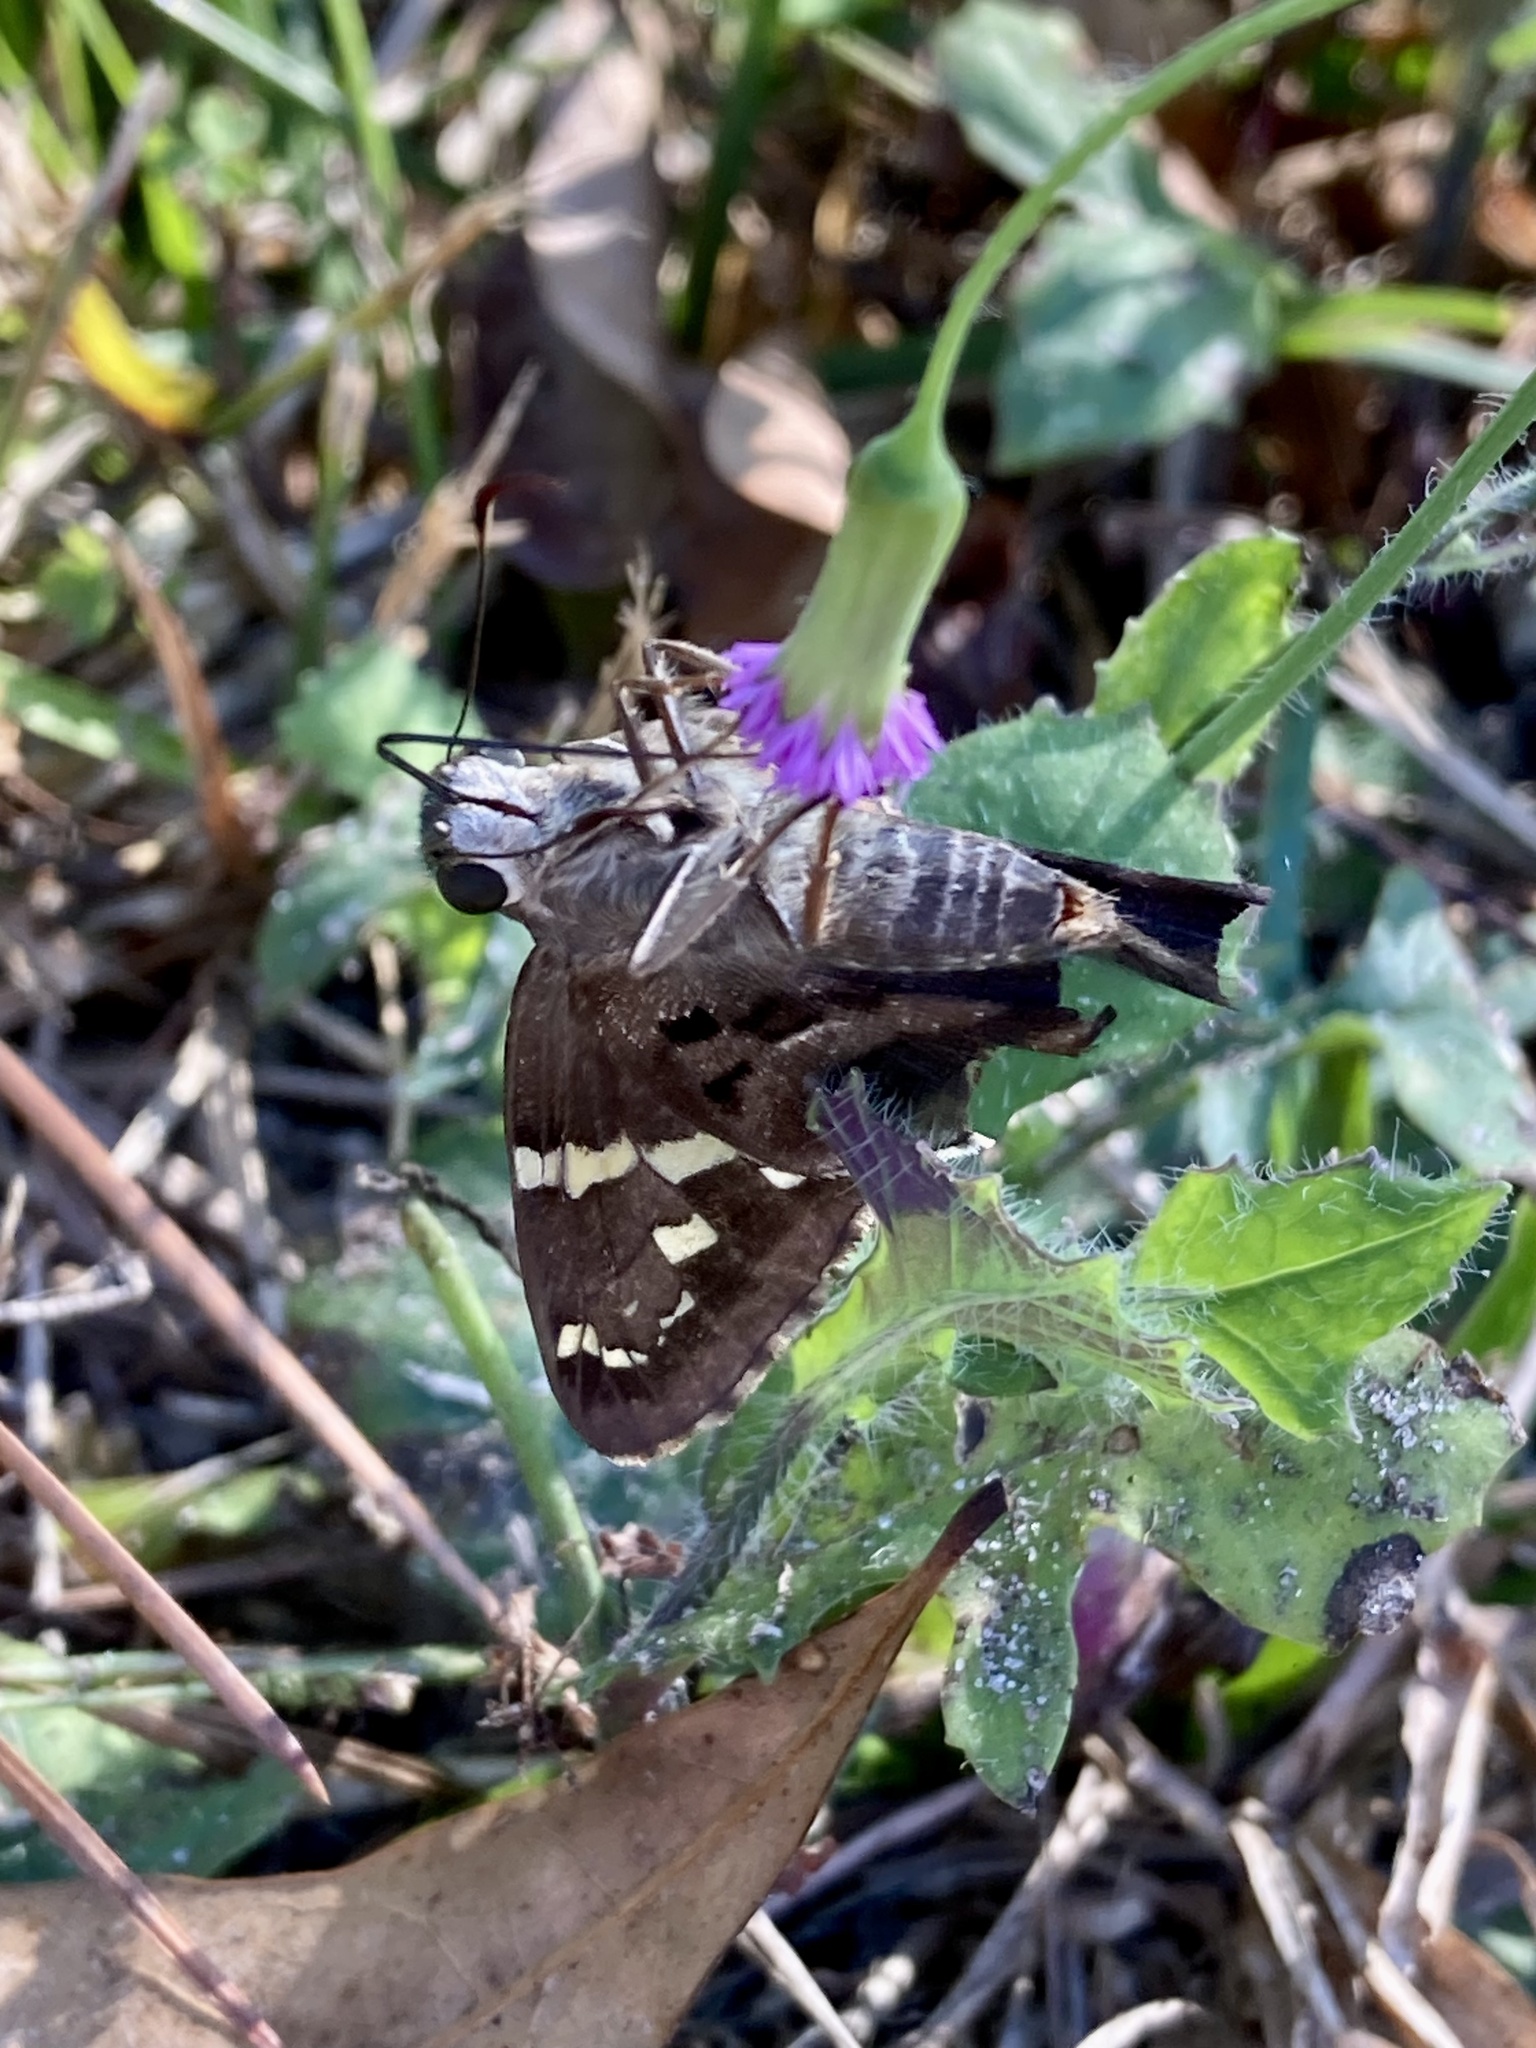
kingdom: Animalia
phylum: Arthropoda
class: Insecta
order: Lepidoptera
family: Hesperiidae
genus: Urbanus
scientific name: Urbanus proteus
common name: Long-tailed skipper
